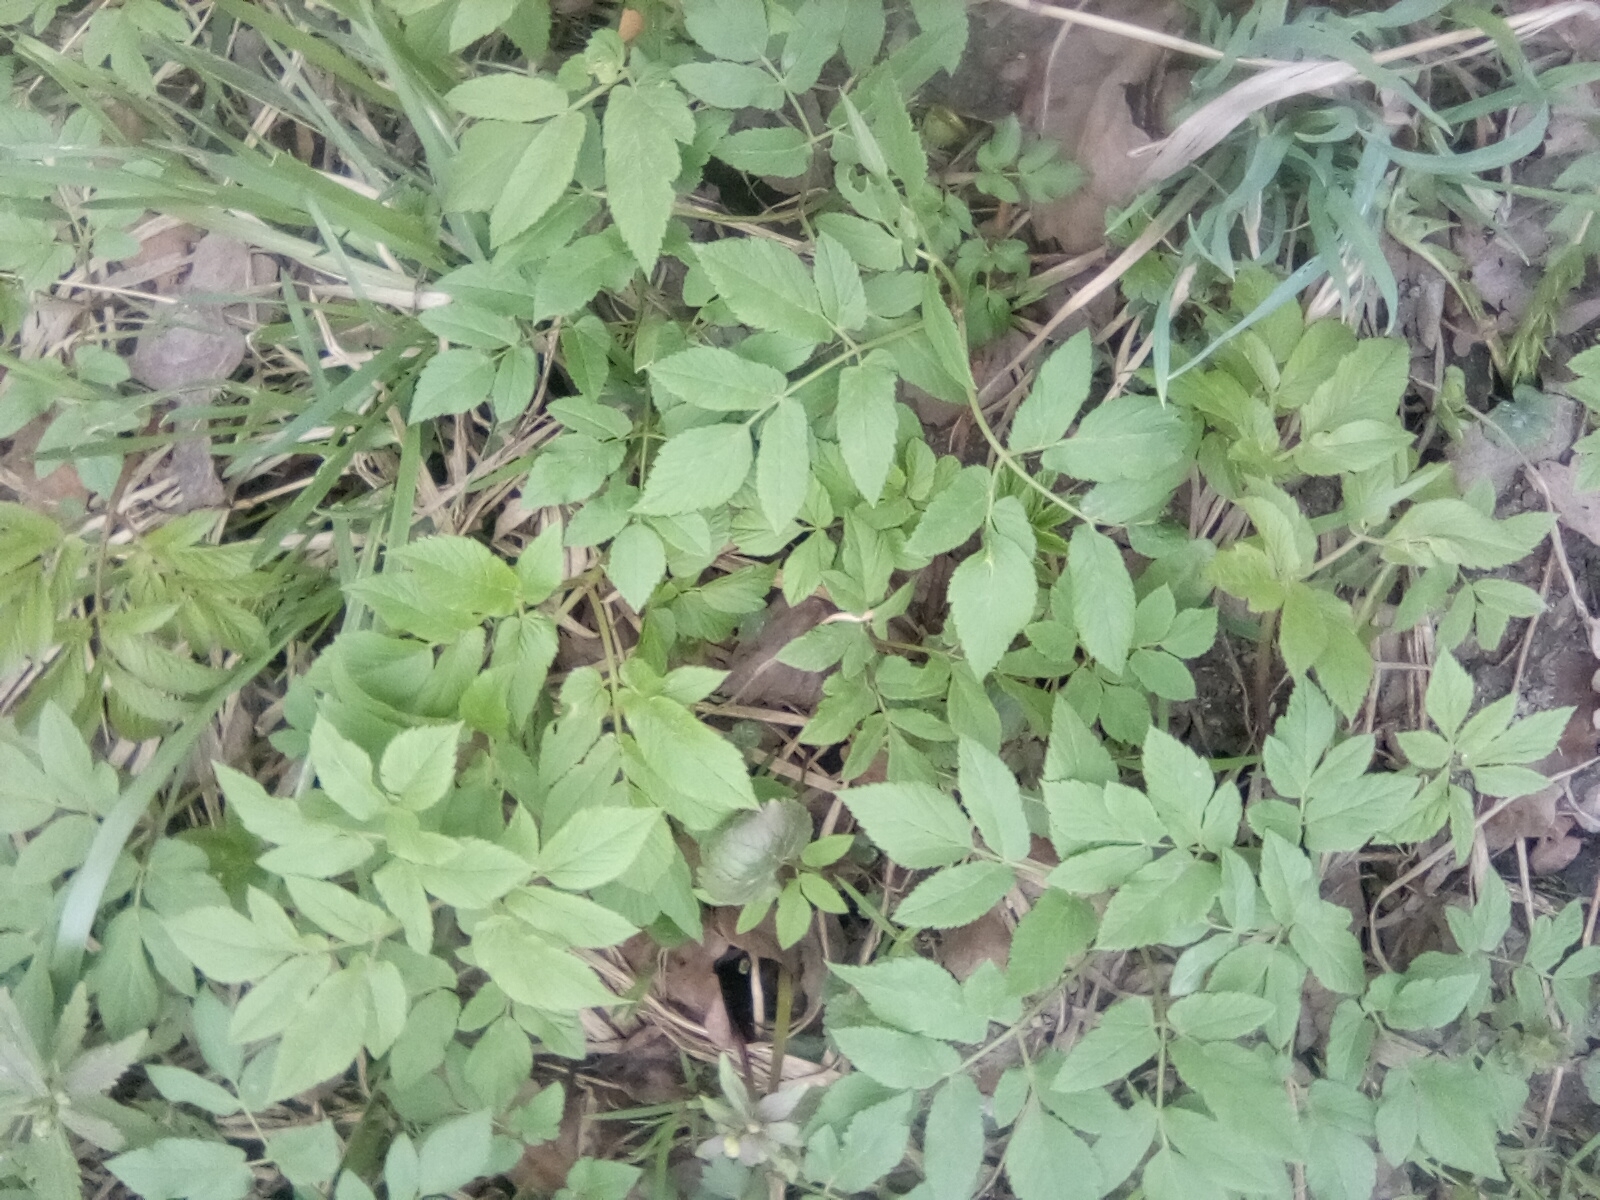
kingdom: Plantae
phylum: Tracheophyta
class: Magnoliopsida
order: Apiales
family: Apiaceae
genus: Aegopodium
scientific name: Aegopodium podagraria
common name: Ground-elder
